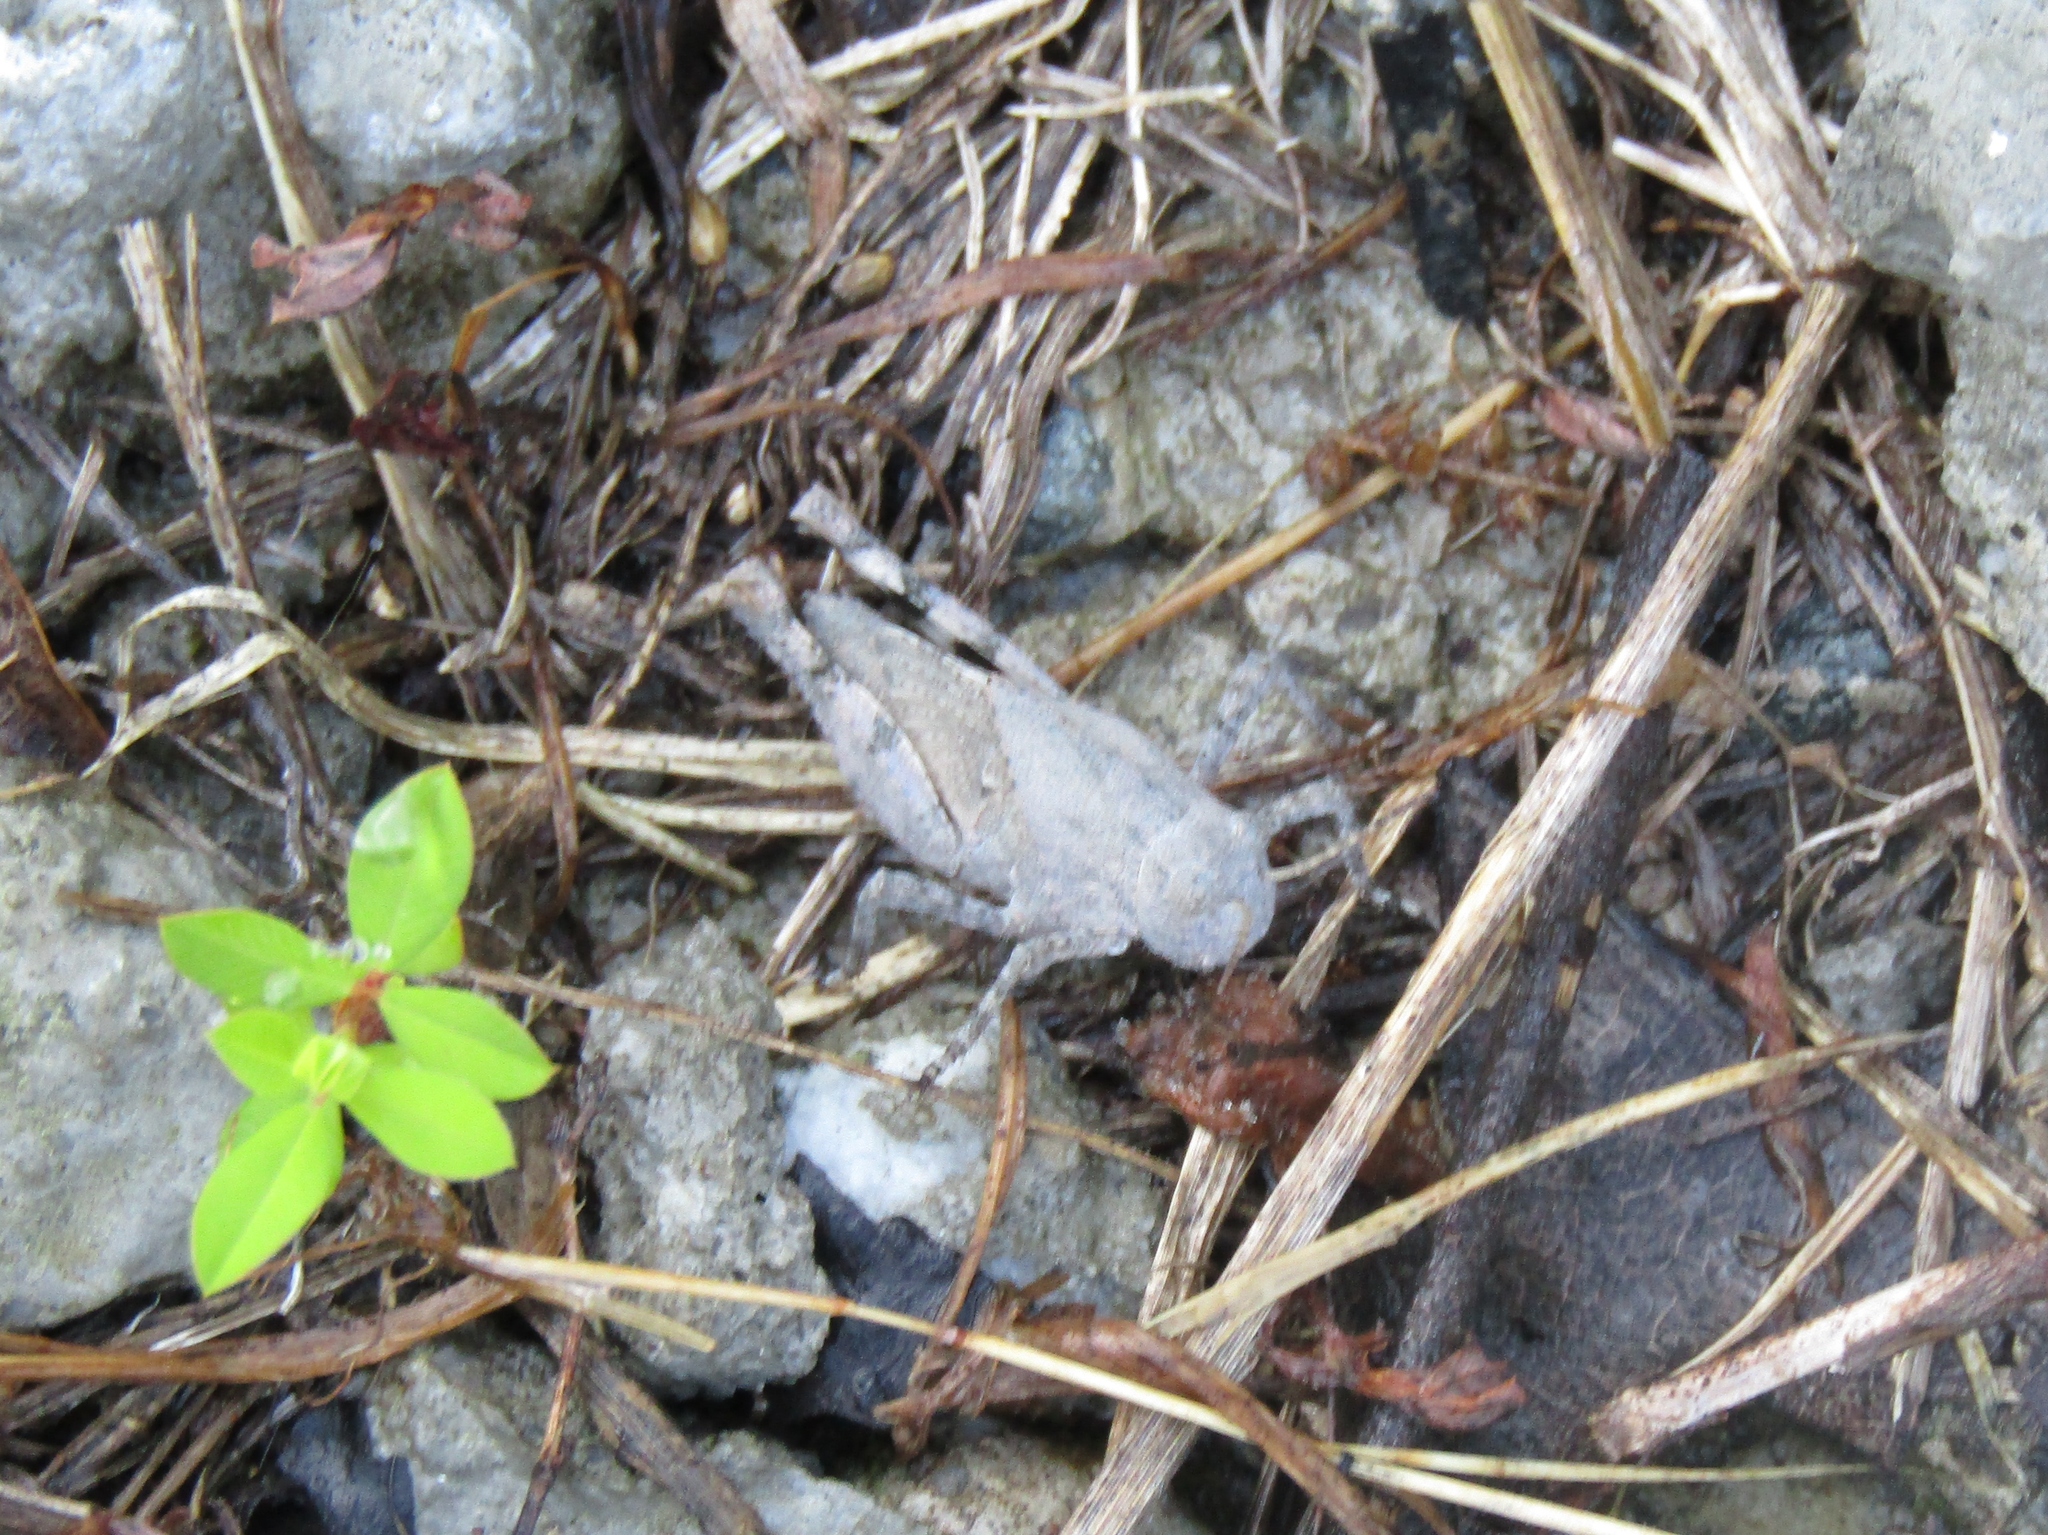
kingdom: Animalia
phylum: Arthropoda
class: Insecta
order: Orthoptera
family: Acrididae
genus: Dissosteira
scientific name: Dissosteira carolina
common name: Carolina grasshopper
